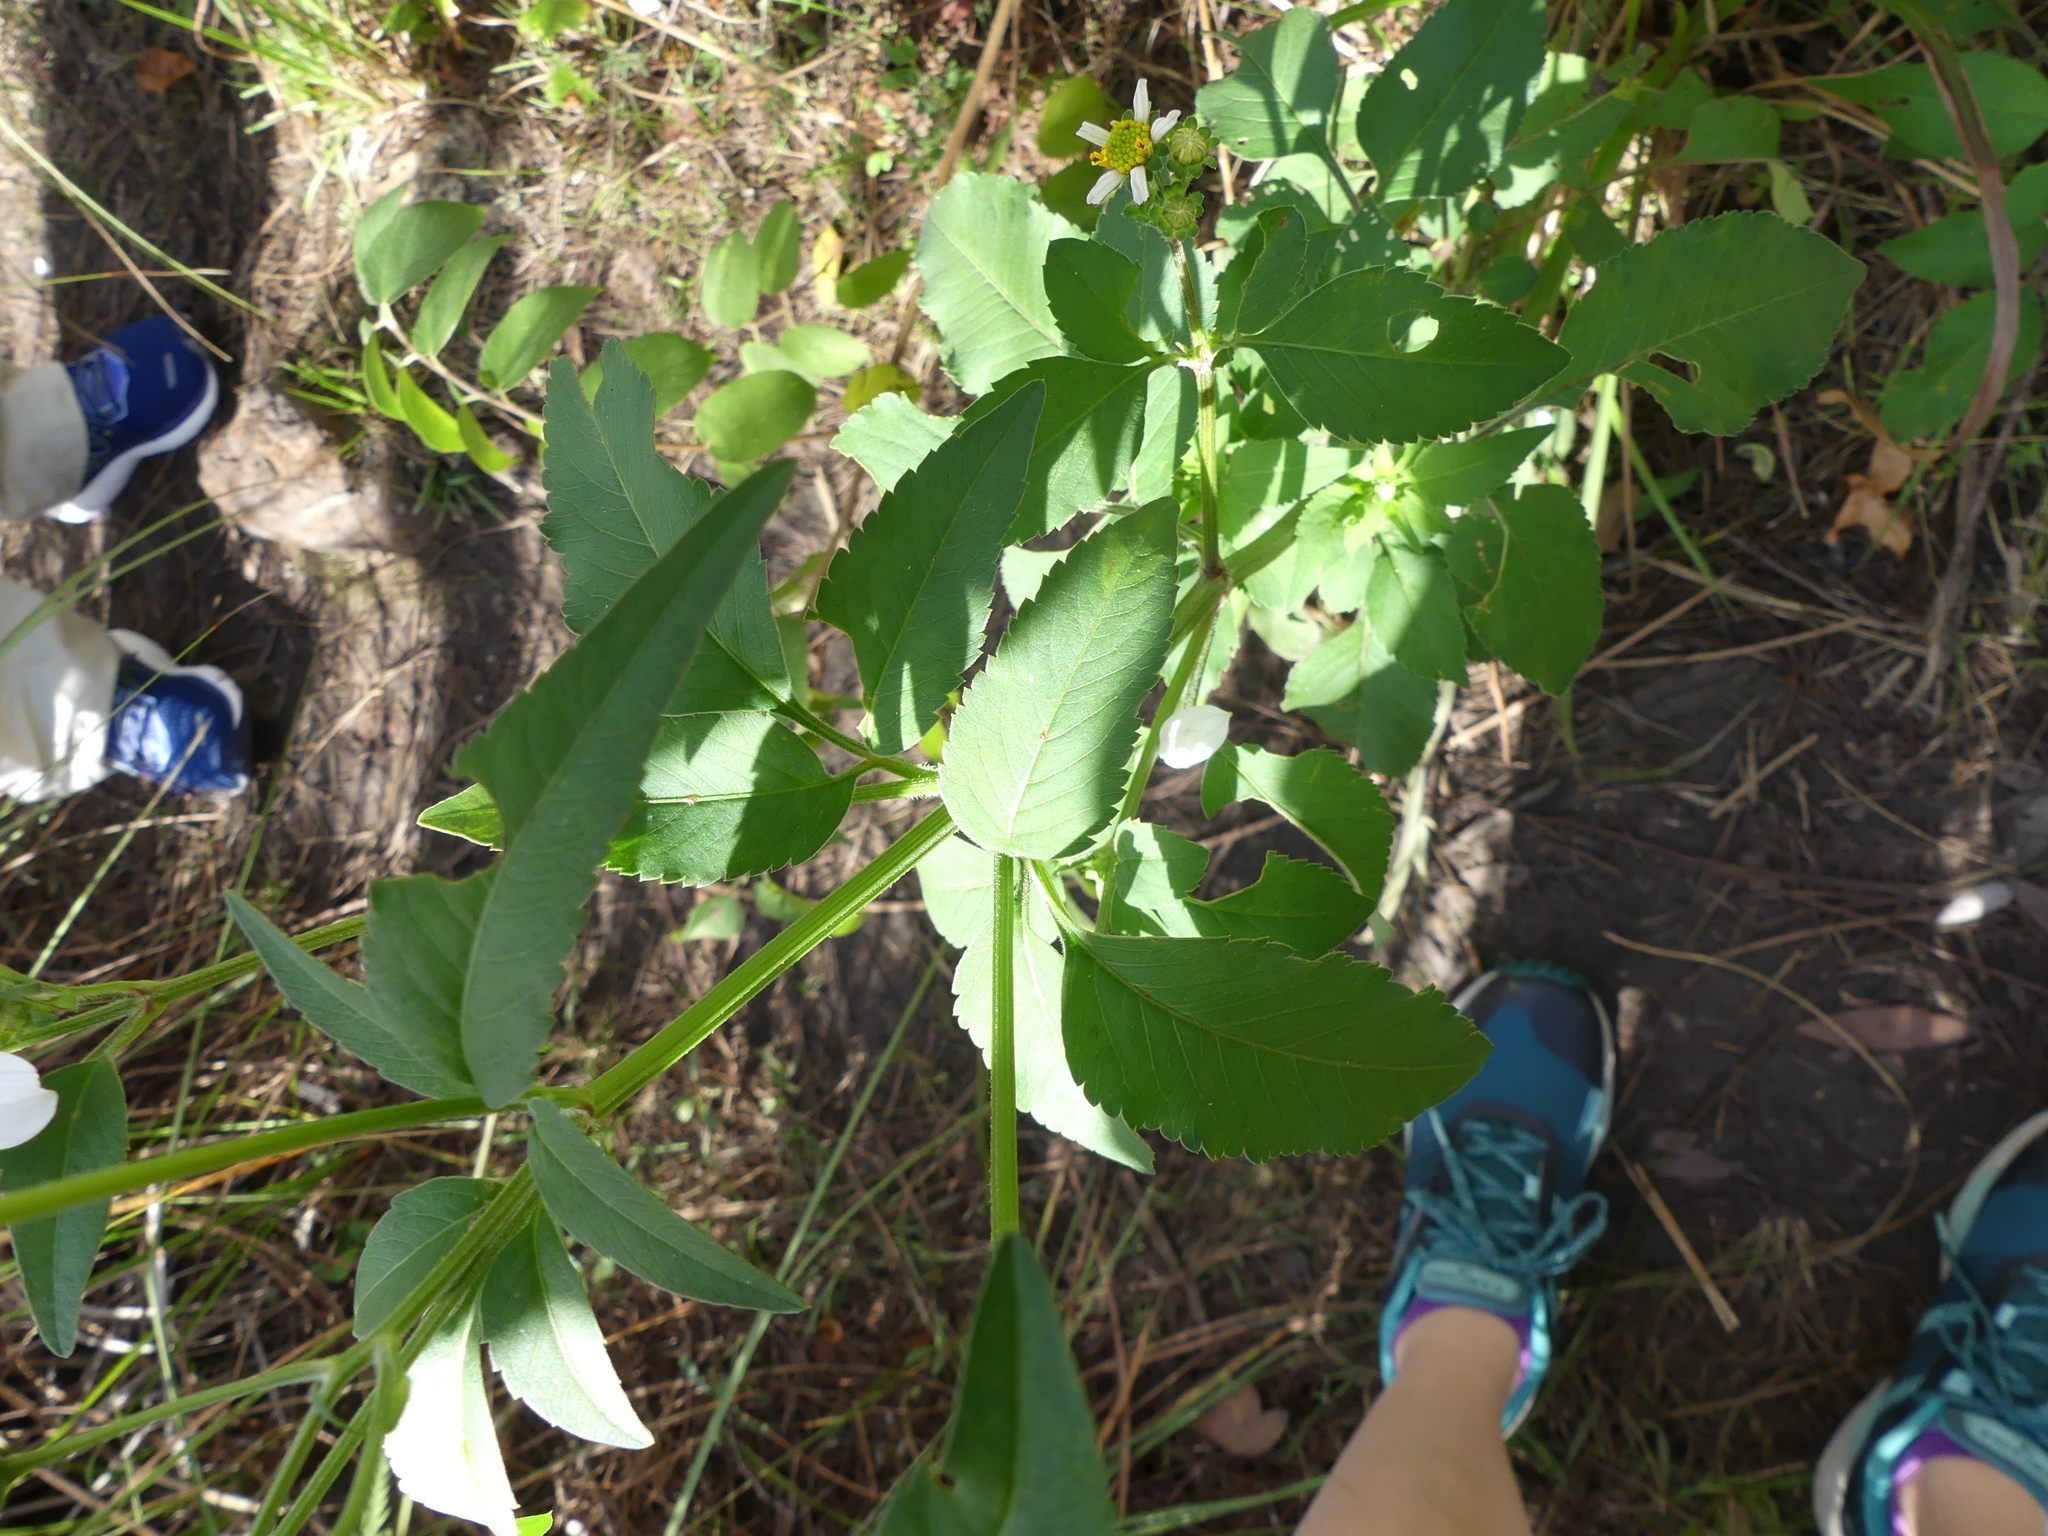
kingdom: Plantae
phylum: Tracheophyta
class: Magnoliopsida
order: Asterales
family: Asteraceae
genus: Bidens
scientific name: Bidens alba
